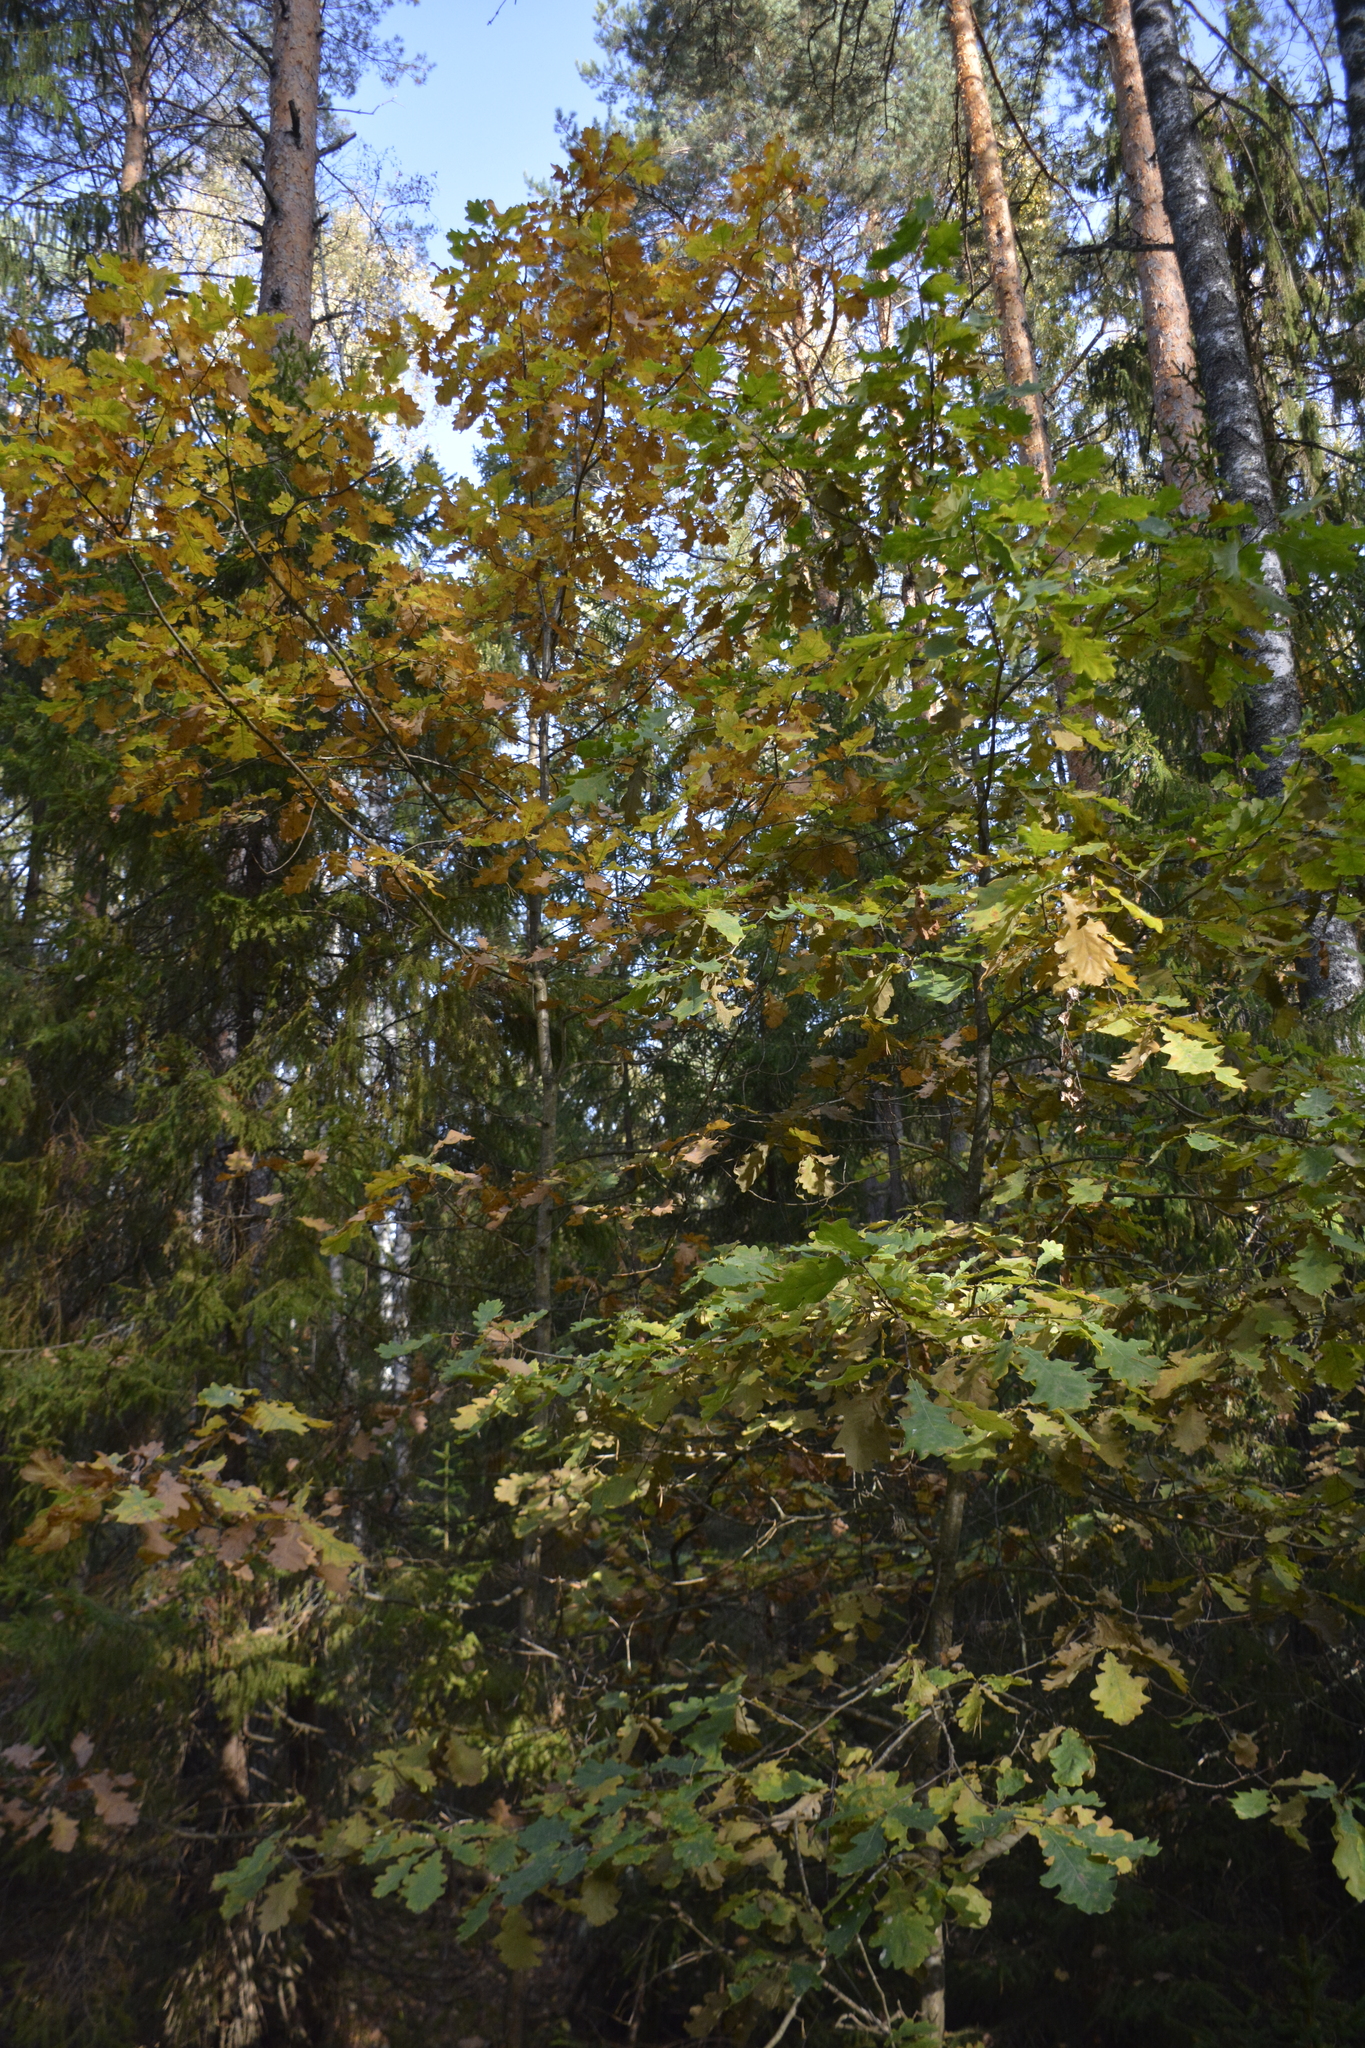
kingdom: Plantae
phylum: Tracheophyta
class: Magnoliopsida
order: Fagales
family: Fagaceae
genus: Quercus
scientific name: Quercus robur
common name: Pedunculate oak
